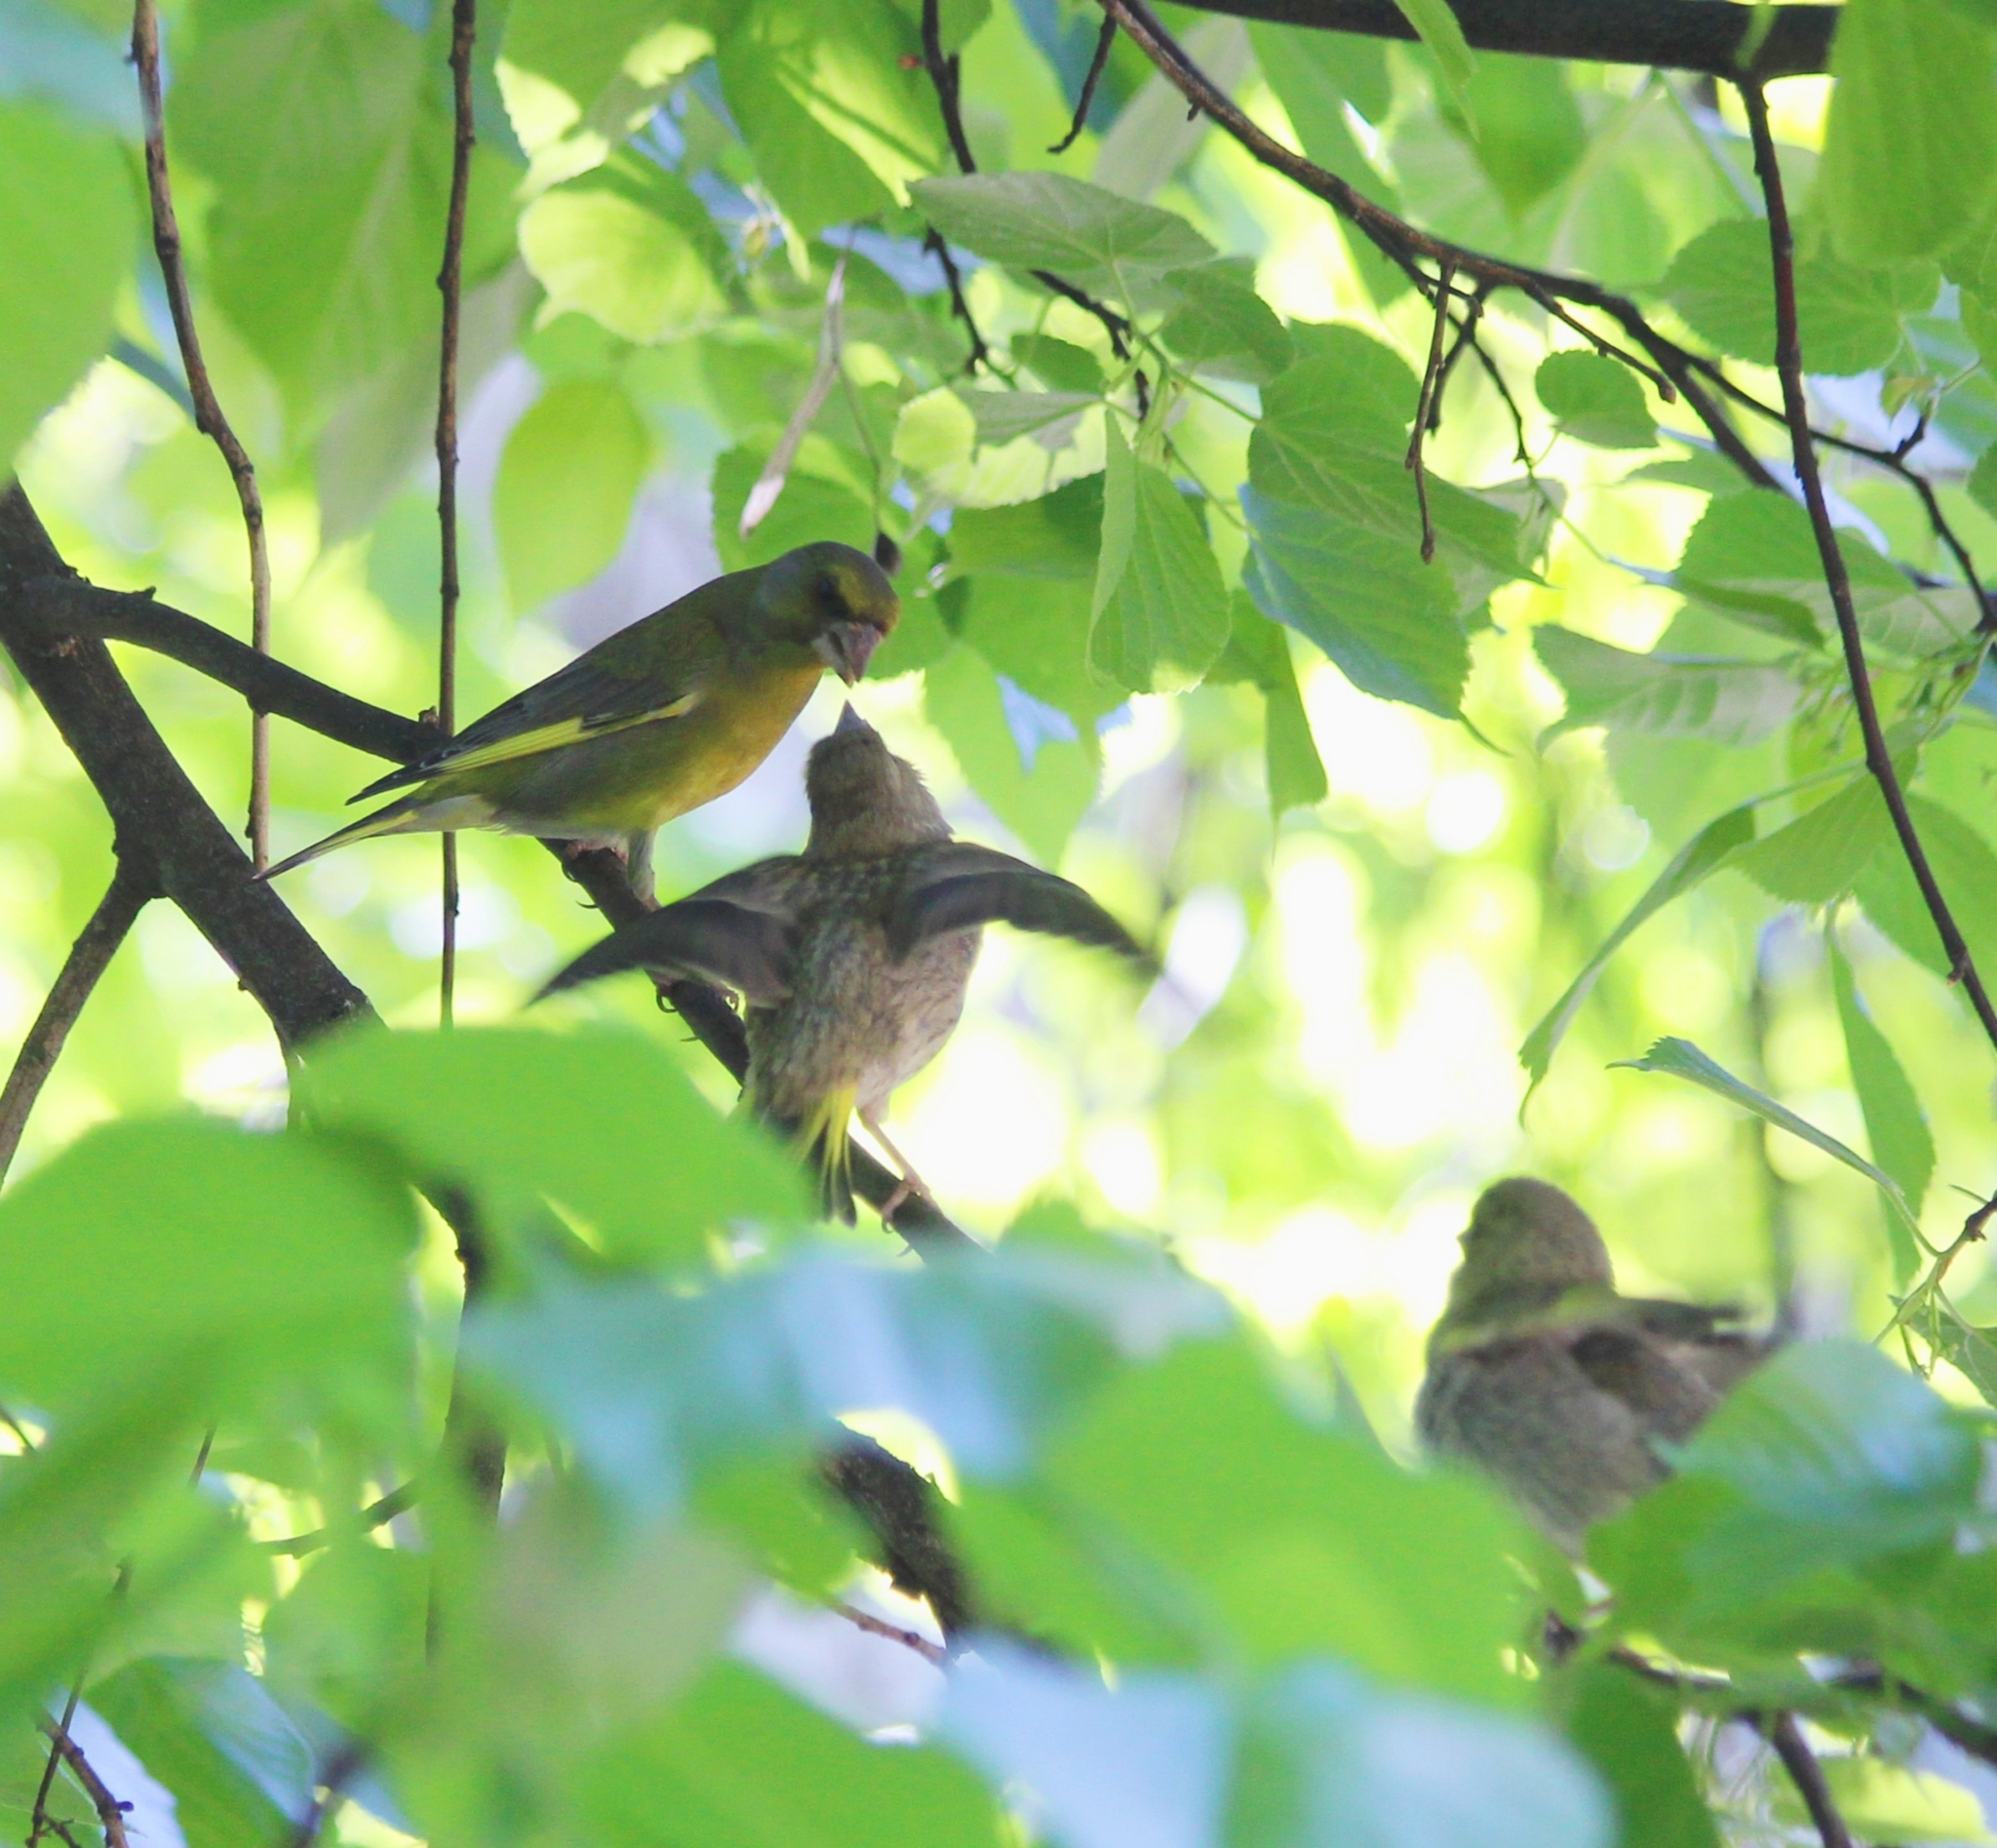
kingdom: Plantae
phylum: Tracheophyta
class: Liliopsida
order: Poales
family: Poaceae
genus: Chloris
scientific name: Chloris chloris
